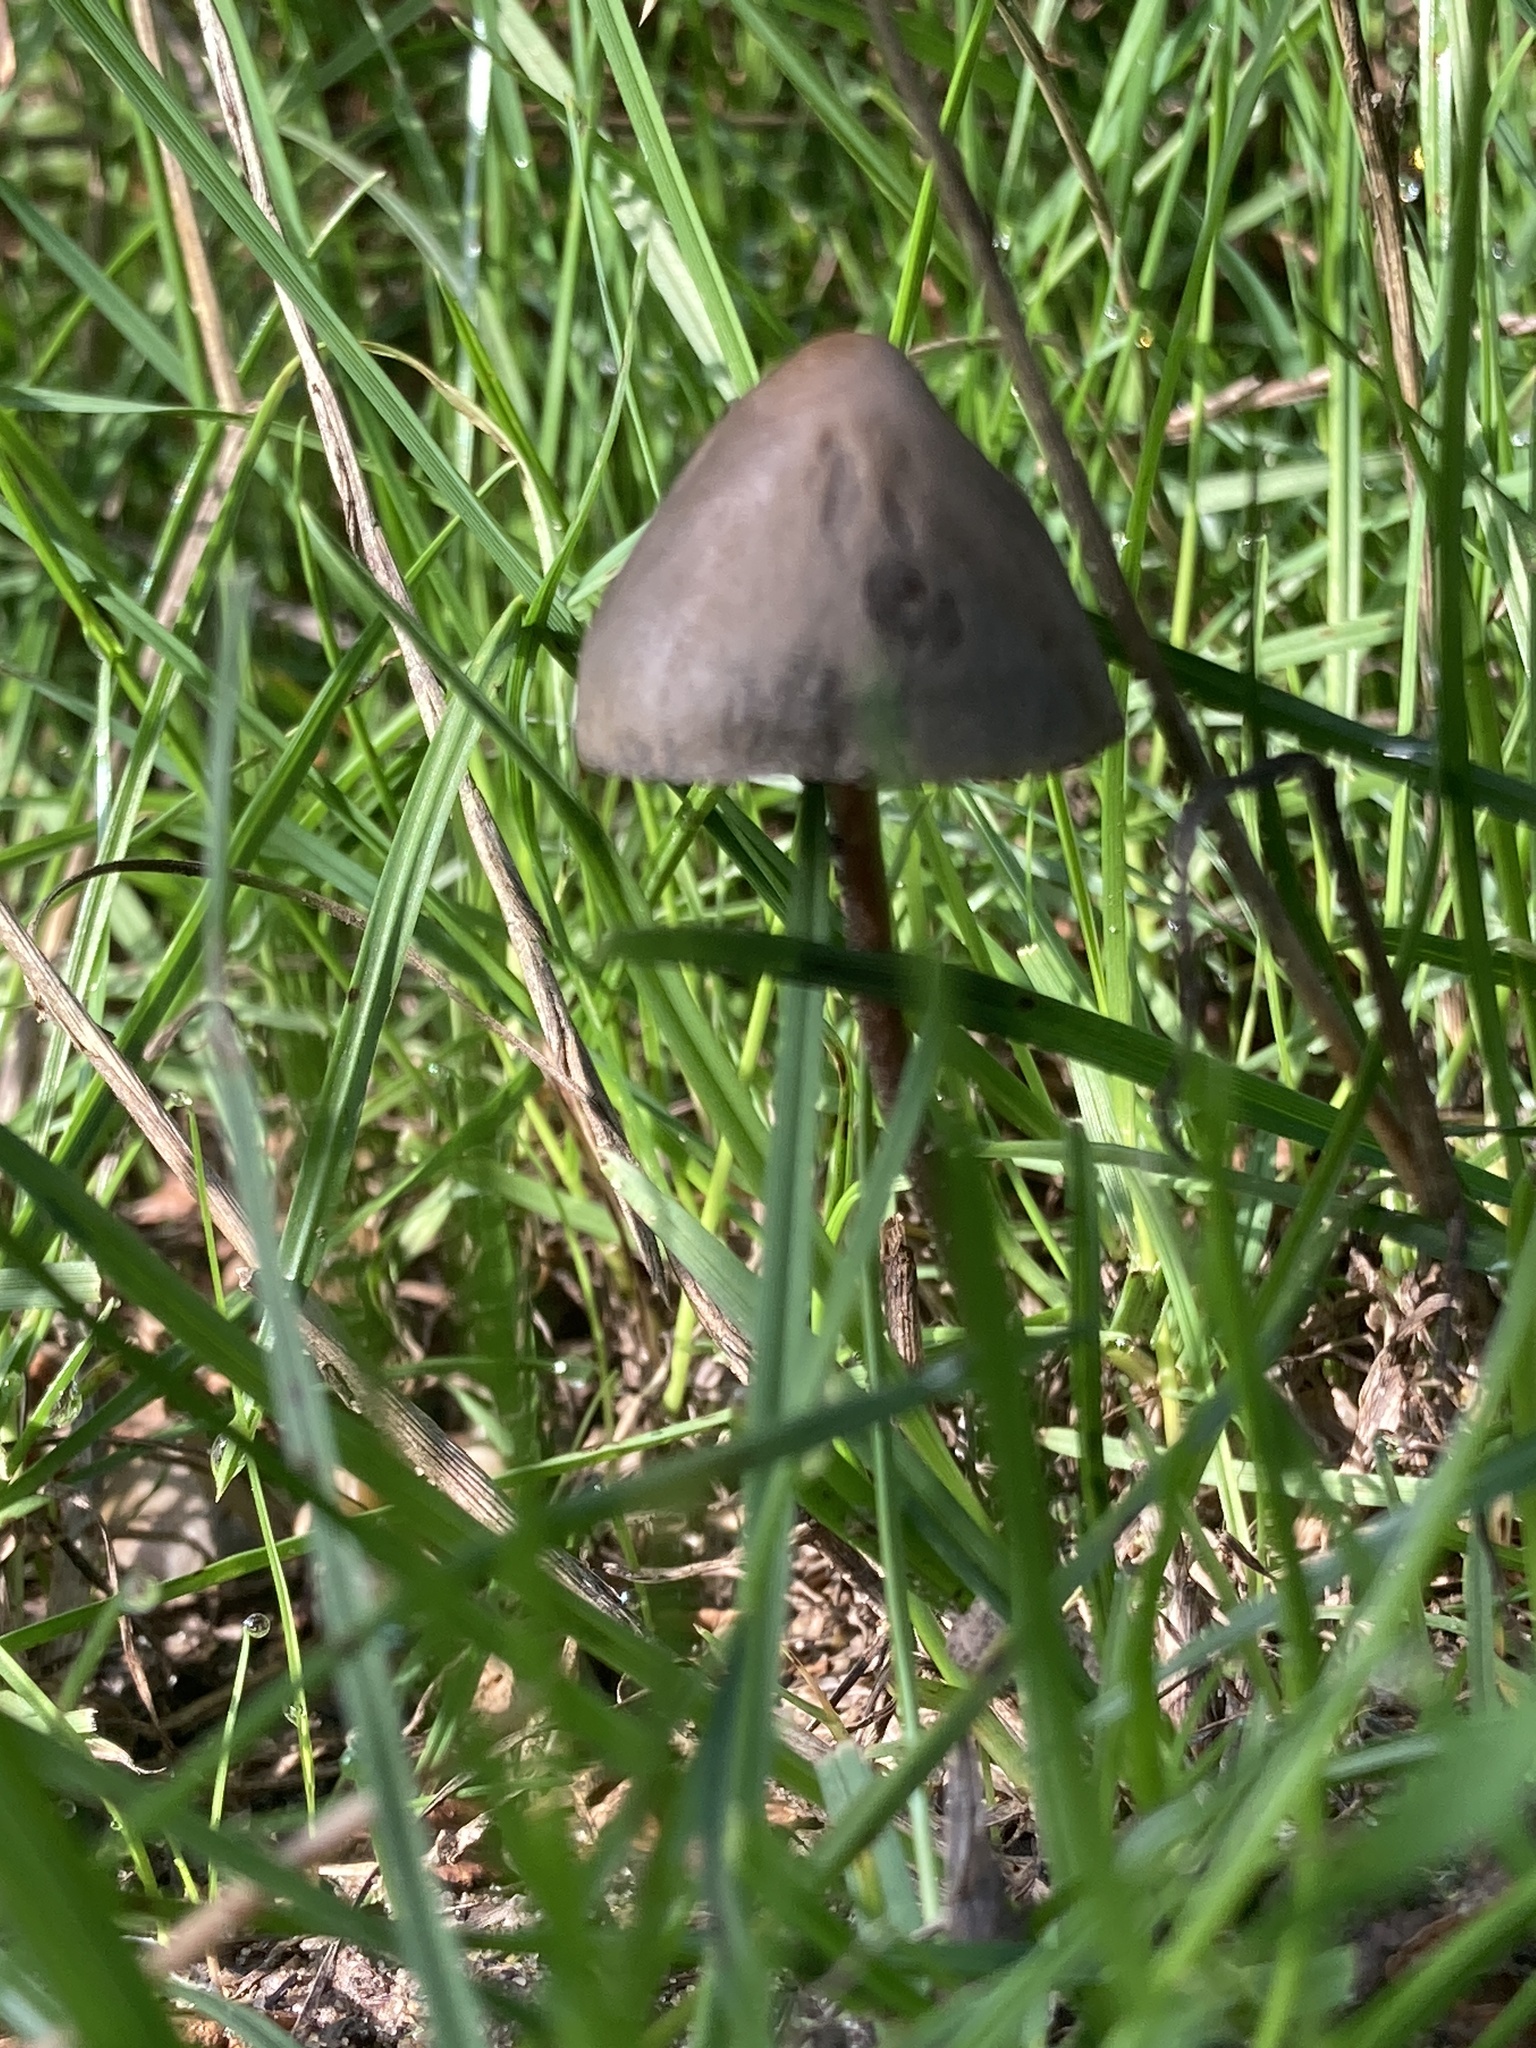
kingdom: Fungi
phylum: Basidiomycota
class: Agaricomycetes
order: Agaricales
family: Bolbitiaceae
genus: Panaeolus
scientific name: Panaeolus ater
